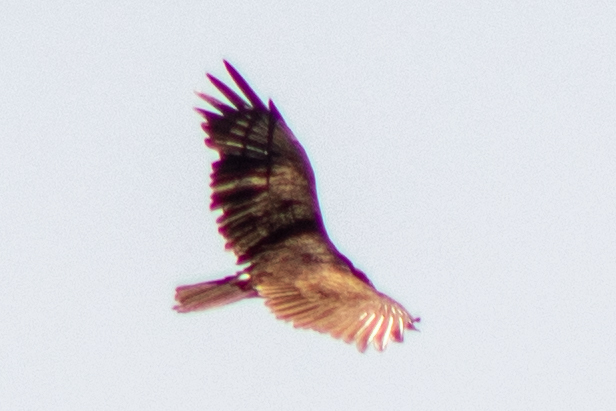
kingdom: Animalia
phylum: Chordata
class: Aves
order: Accipitriformes
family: Cathartidae
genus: Cathartes
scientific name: Cathartes aura
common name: Turkey vulture
